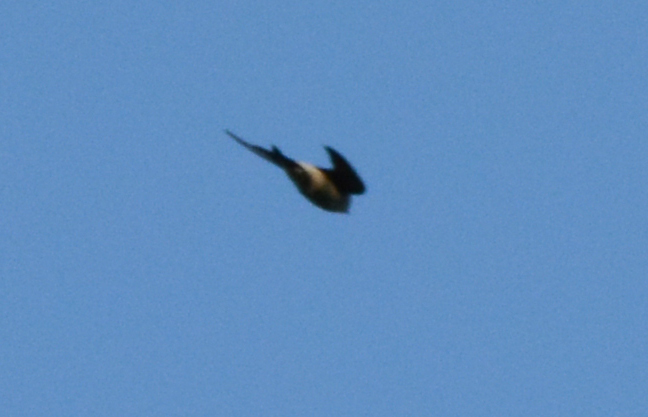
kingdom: Animalia
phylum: Chordata
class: Aves
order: Passeriformes
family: Hirundinidae
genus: Delichon
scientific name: Delichon urbicum
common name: Common house martin
